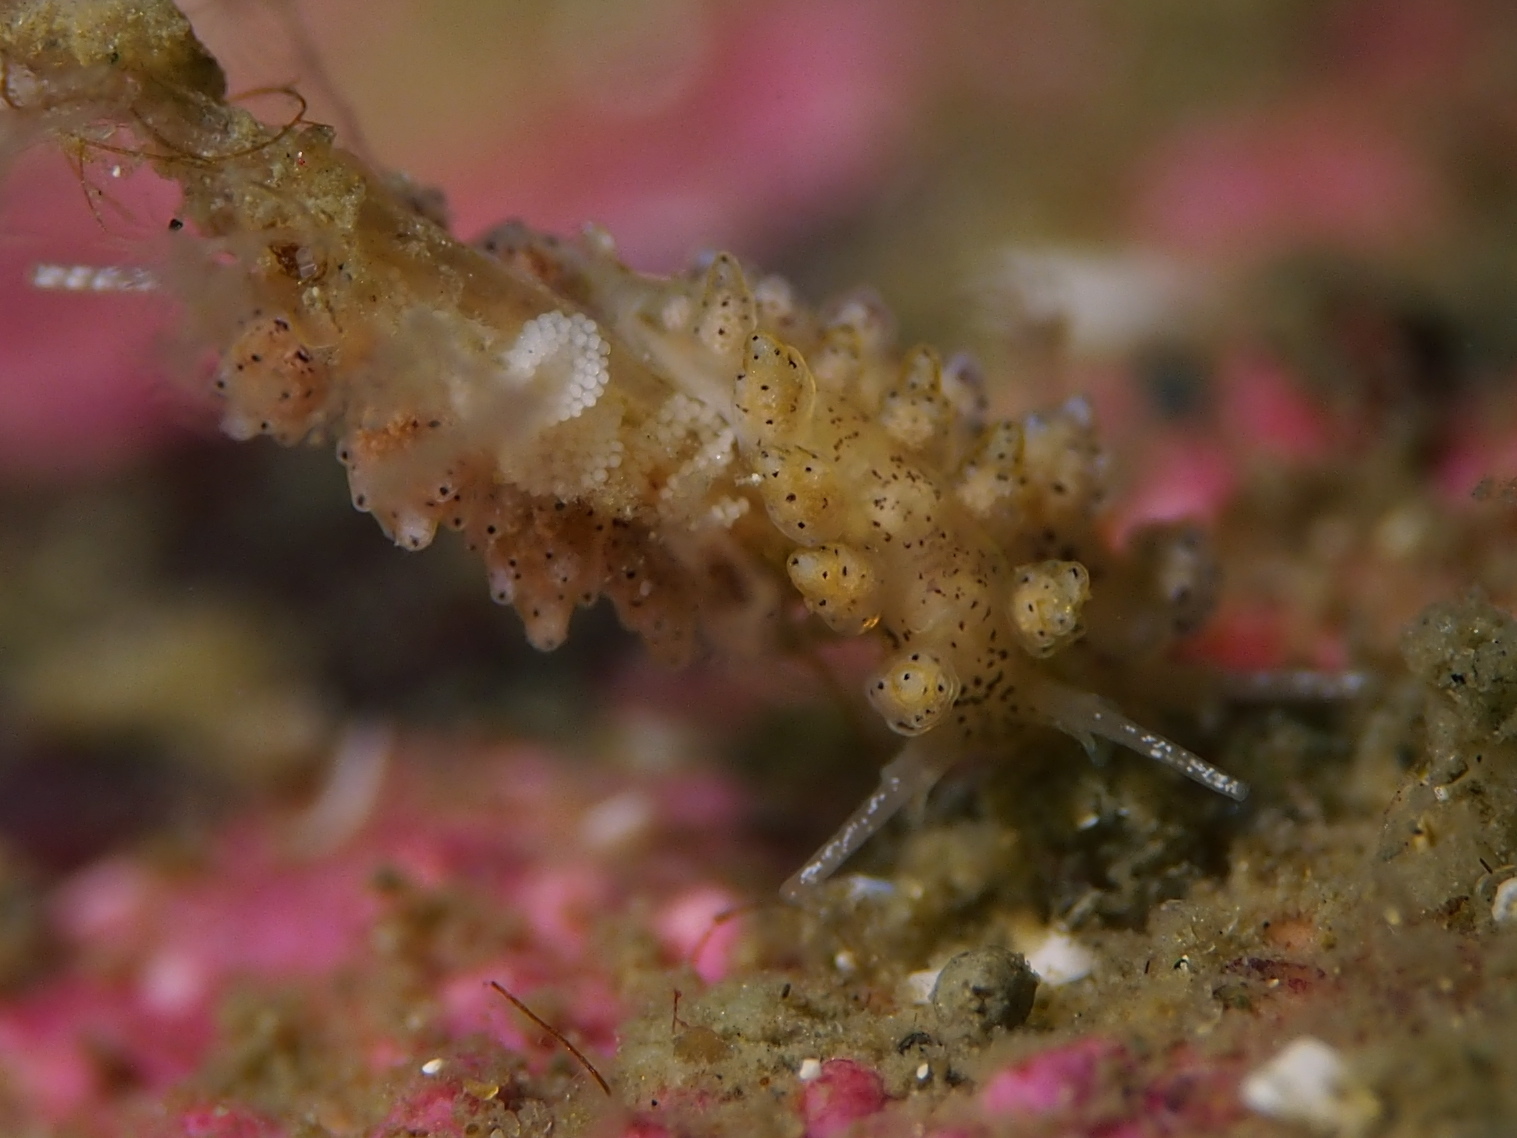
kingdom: Animalia
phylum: Mollusca
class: Gastropoda
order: Nudibranchia
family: Dotidae
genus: Doto
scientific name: Doto dunnei
